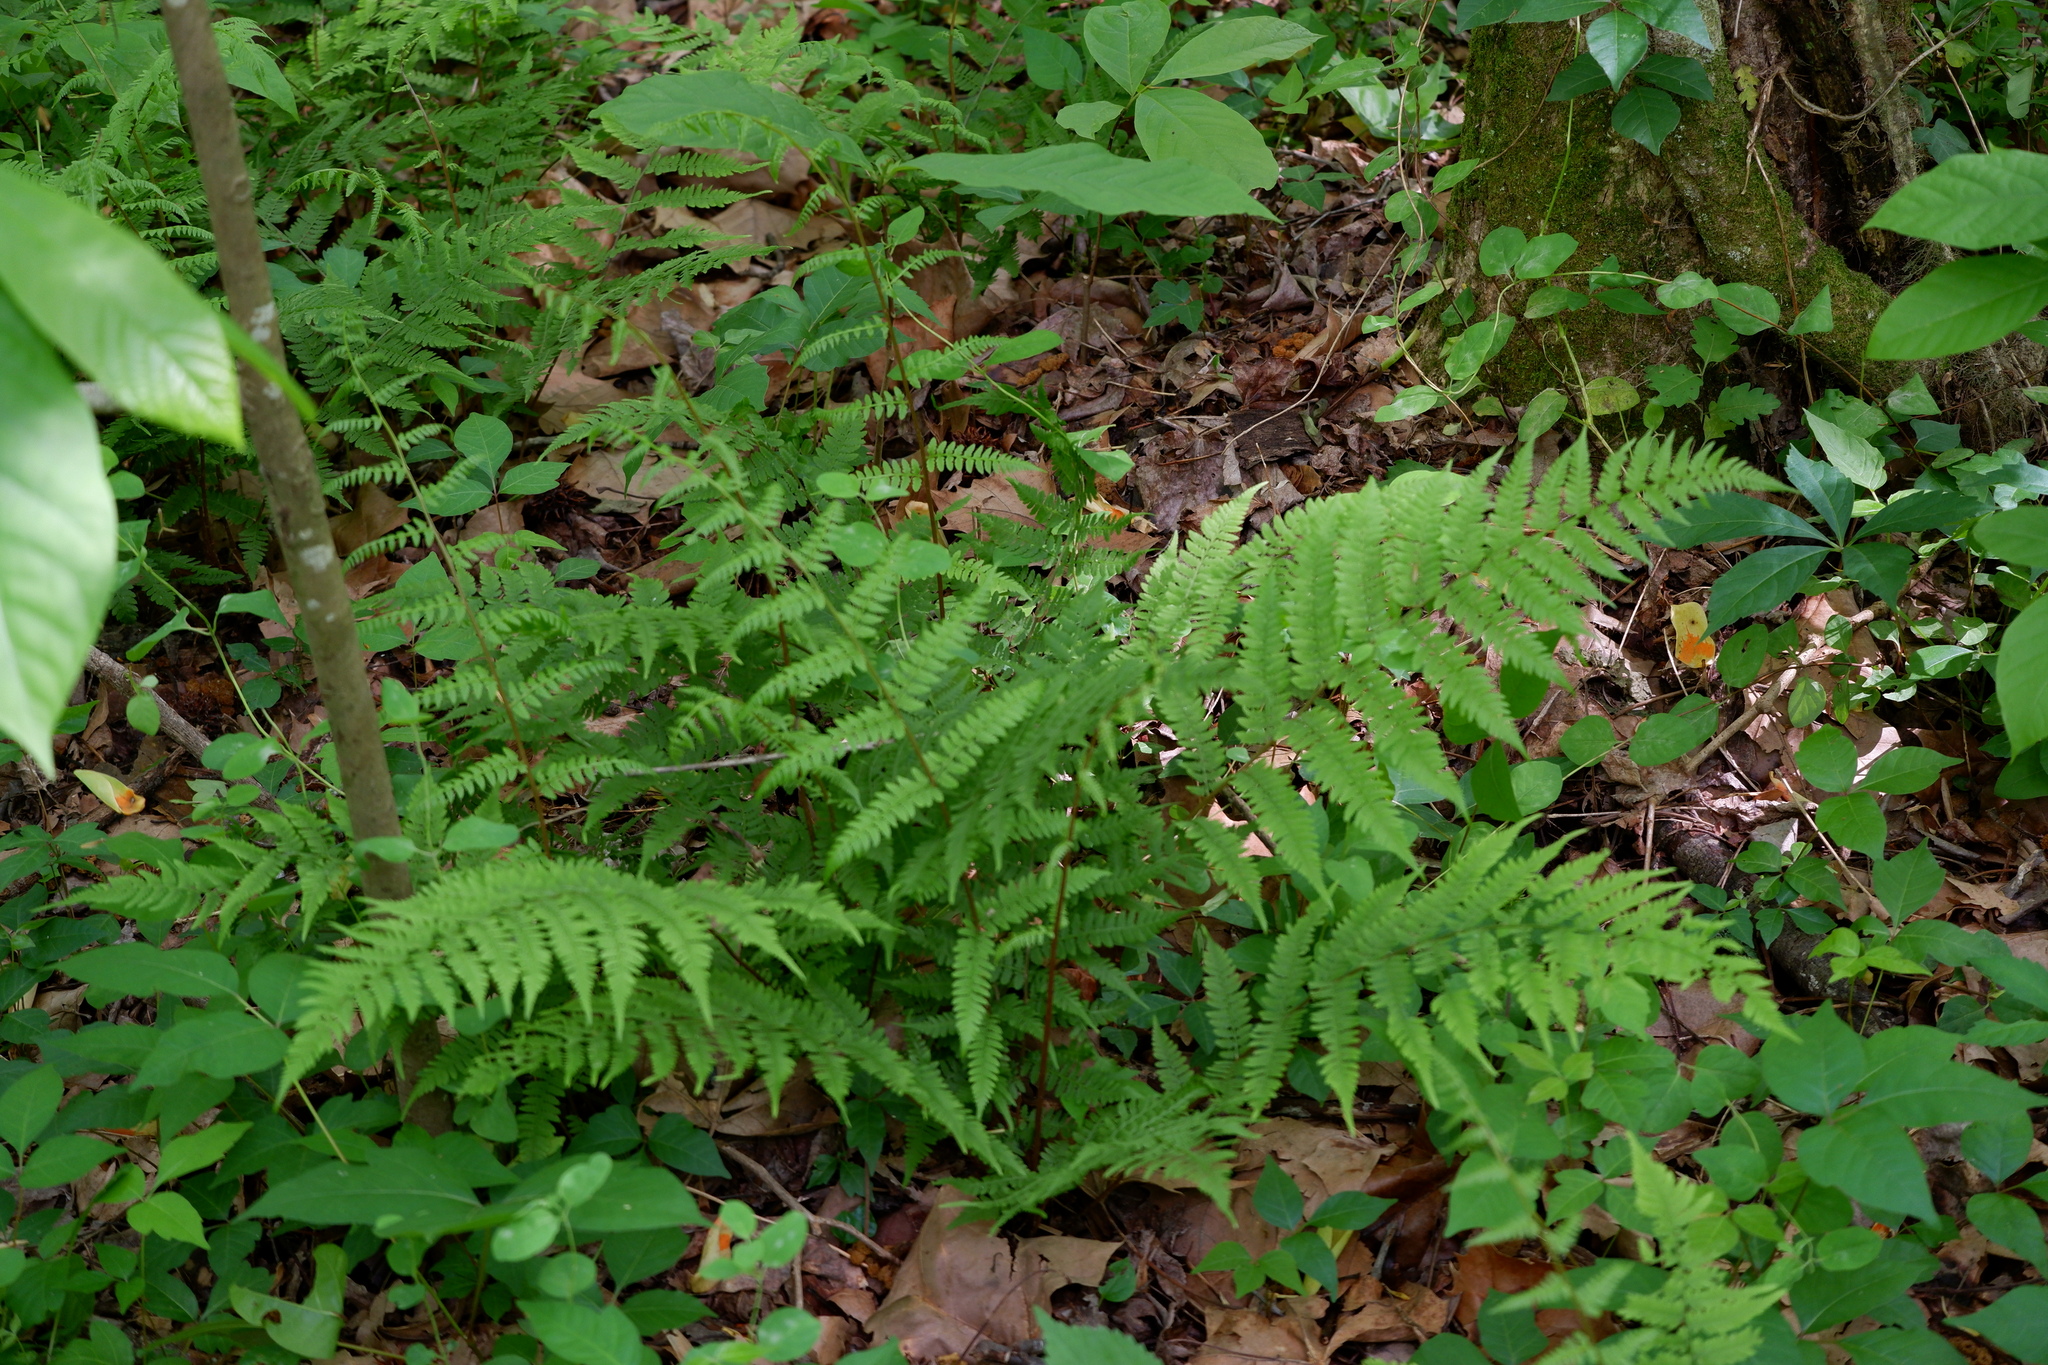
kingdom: Plantae
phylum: Tracheophyta
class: Polypodiopsida
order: Polypodiales
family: Athyriaceae
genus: Athyrium
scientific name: Athyrium asplenioides
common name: Southern lady fern
